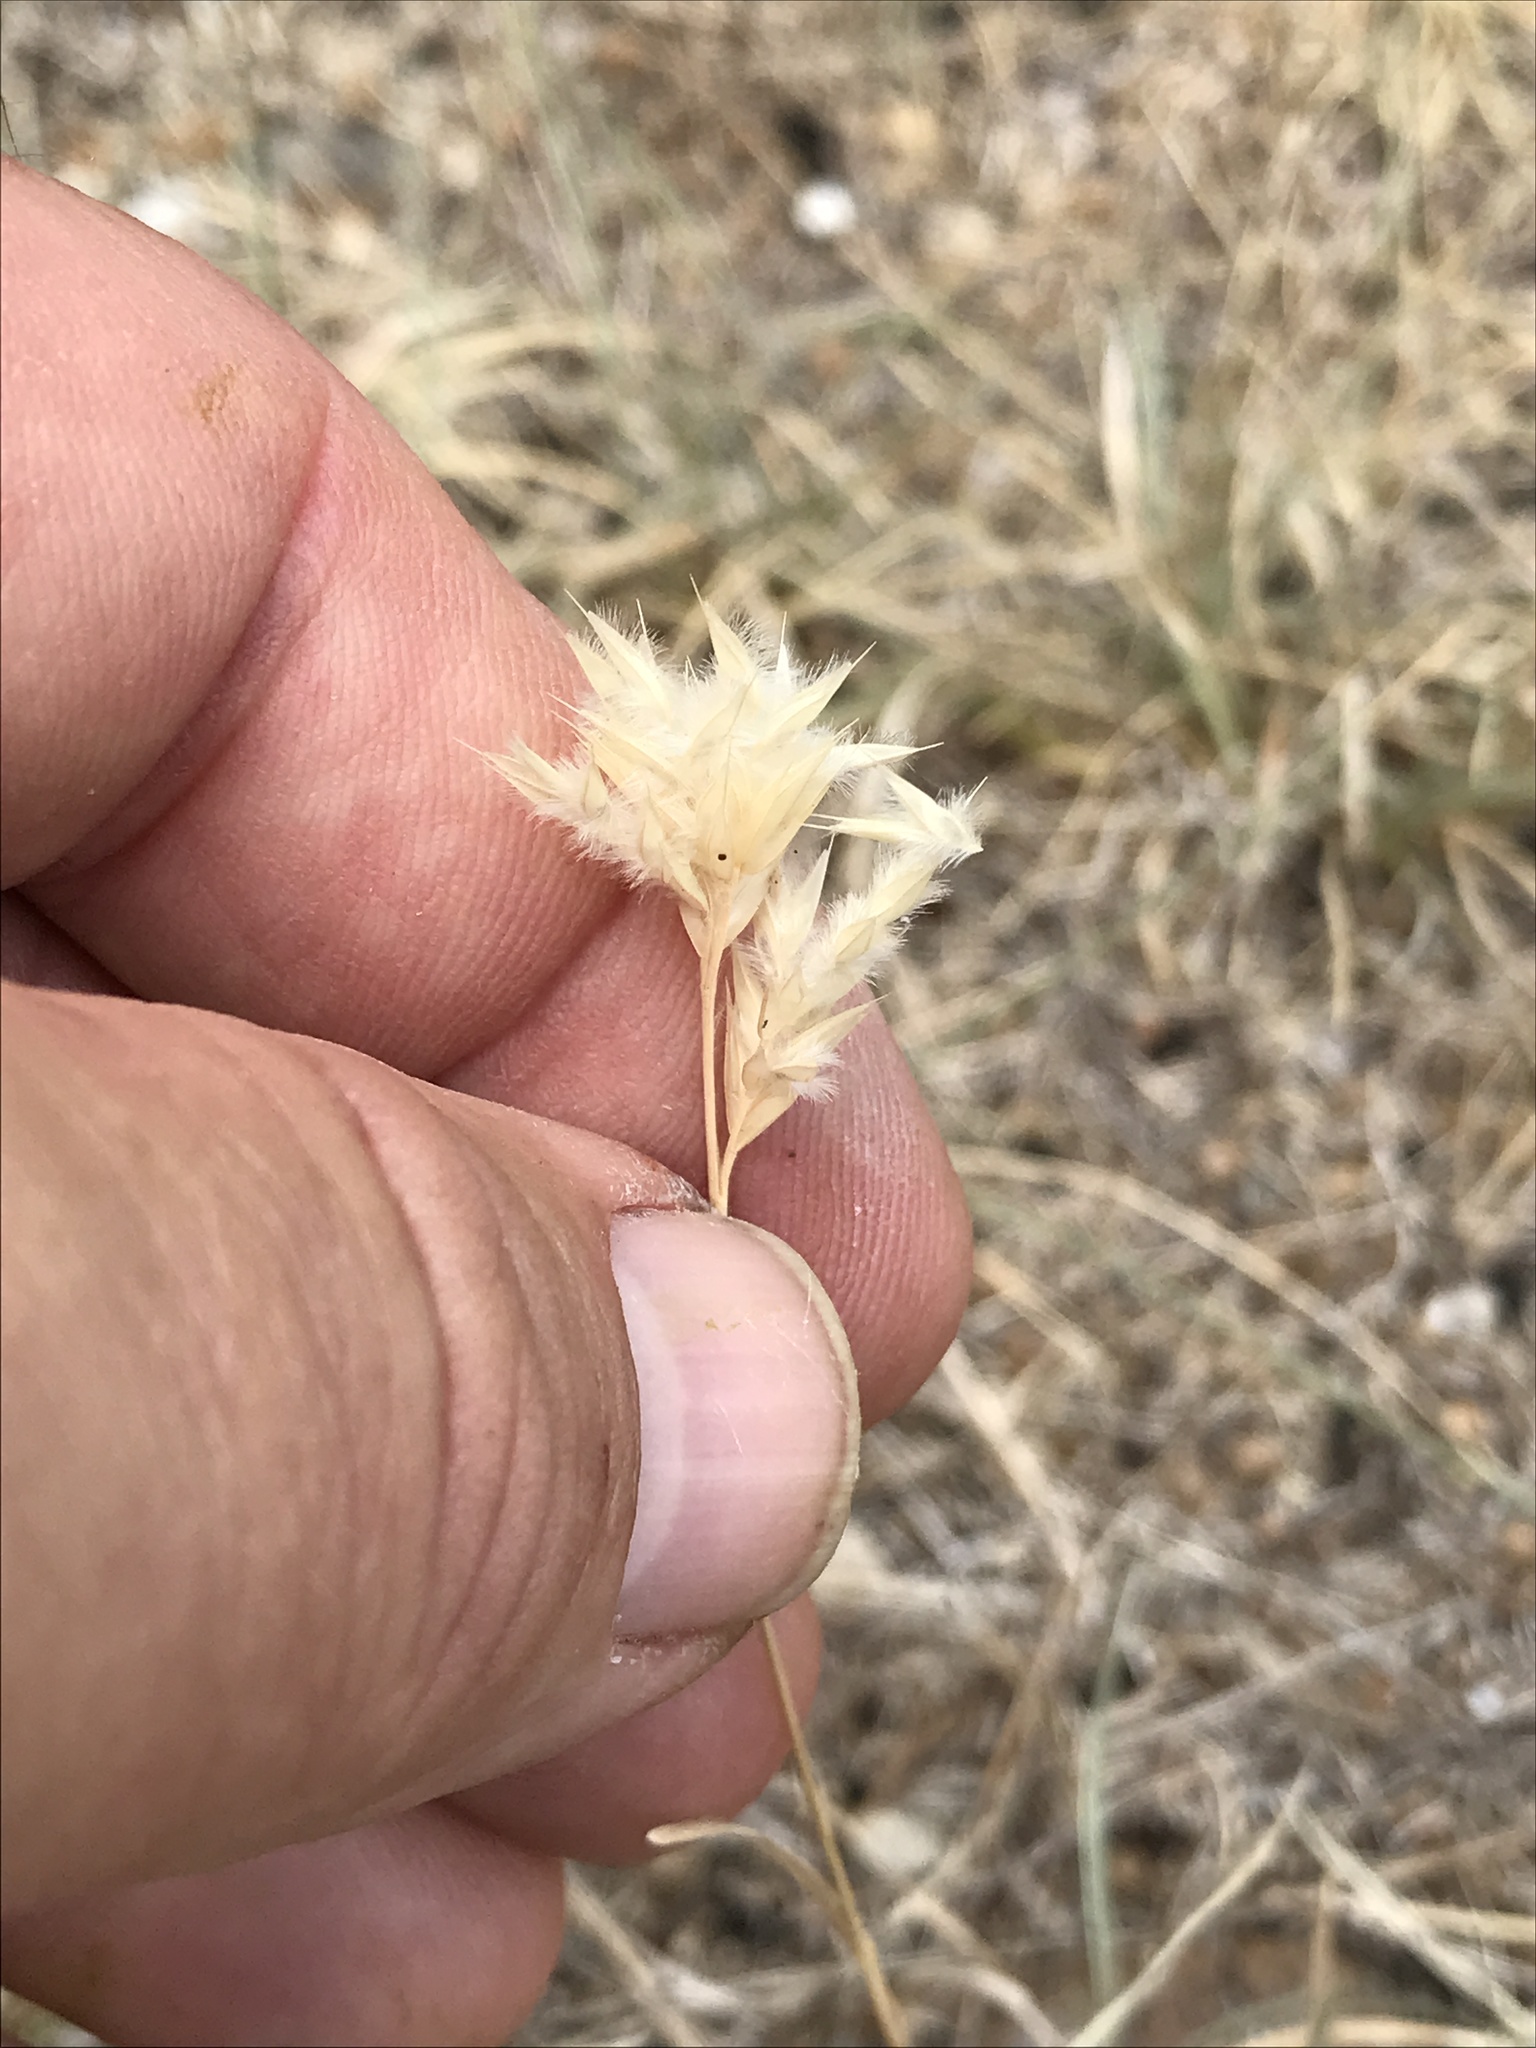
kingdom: Plantae
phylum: Tracheophyta
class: Liliopsida
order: Poales
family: Poaceae
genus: Erioneuron
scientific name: Erioneuron pilosum
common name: Hairy woolly grass
